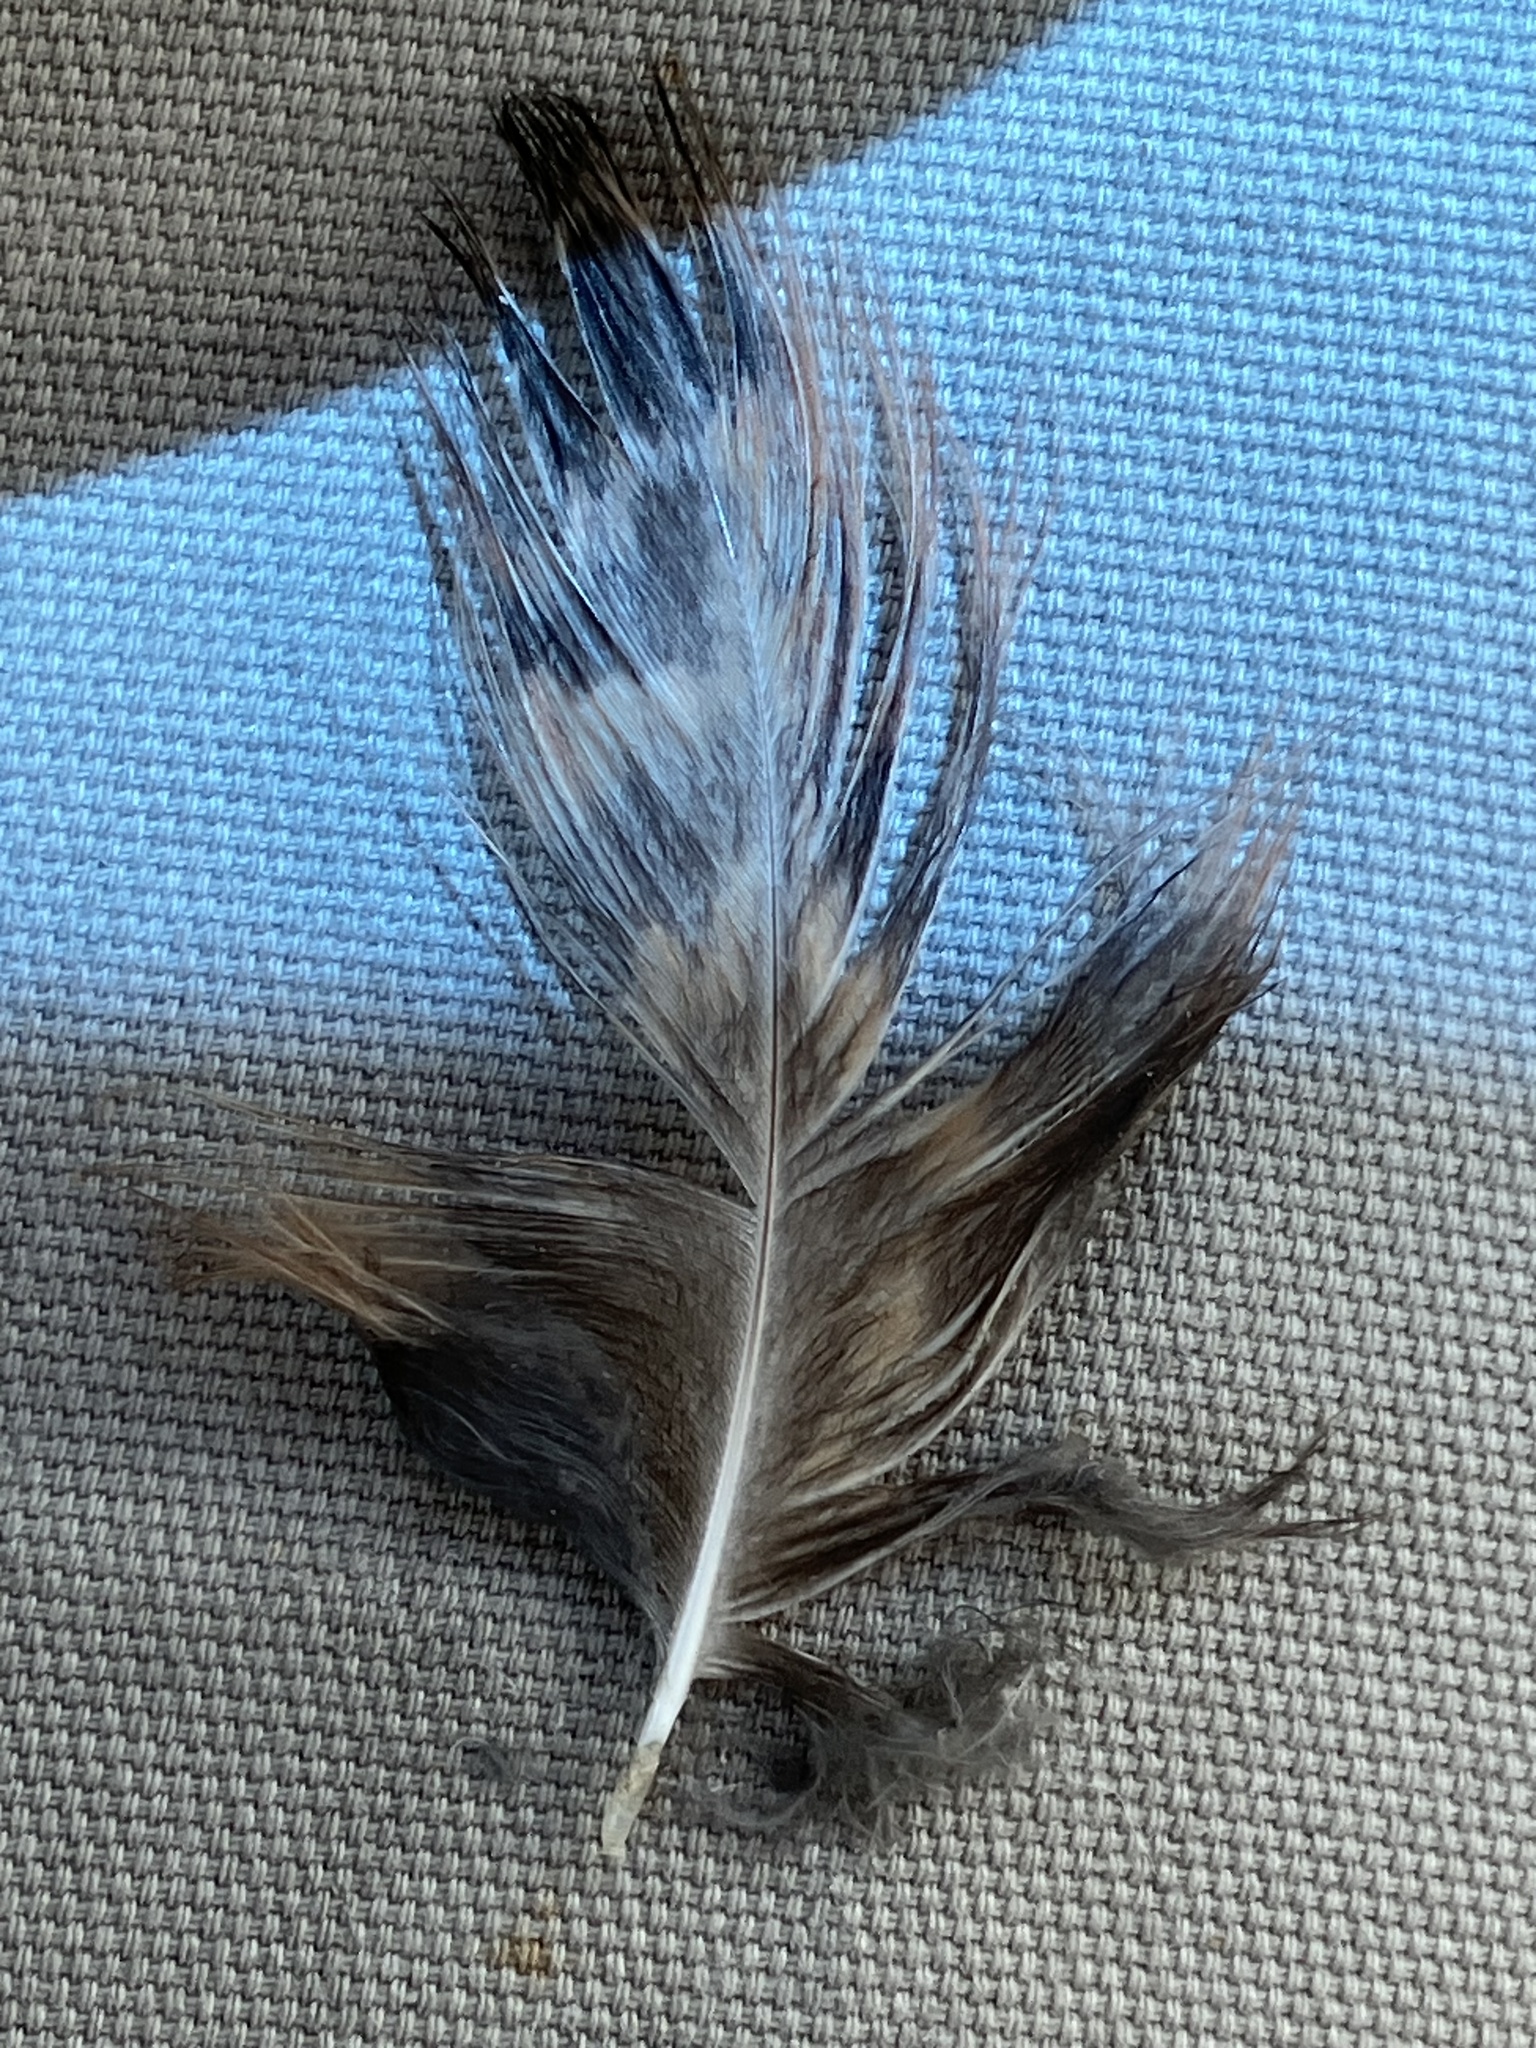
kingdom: Animalia
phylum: Chordata
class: Aves
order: Strigiformes
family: Strigidae
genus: Bubo
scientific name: Bubo virginianus
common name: Great horned owl
